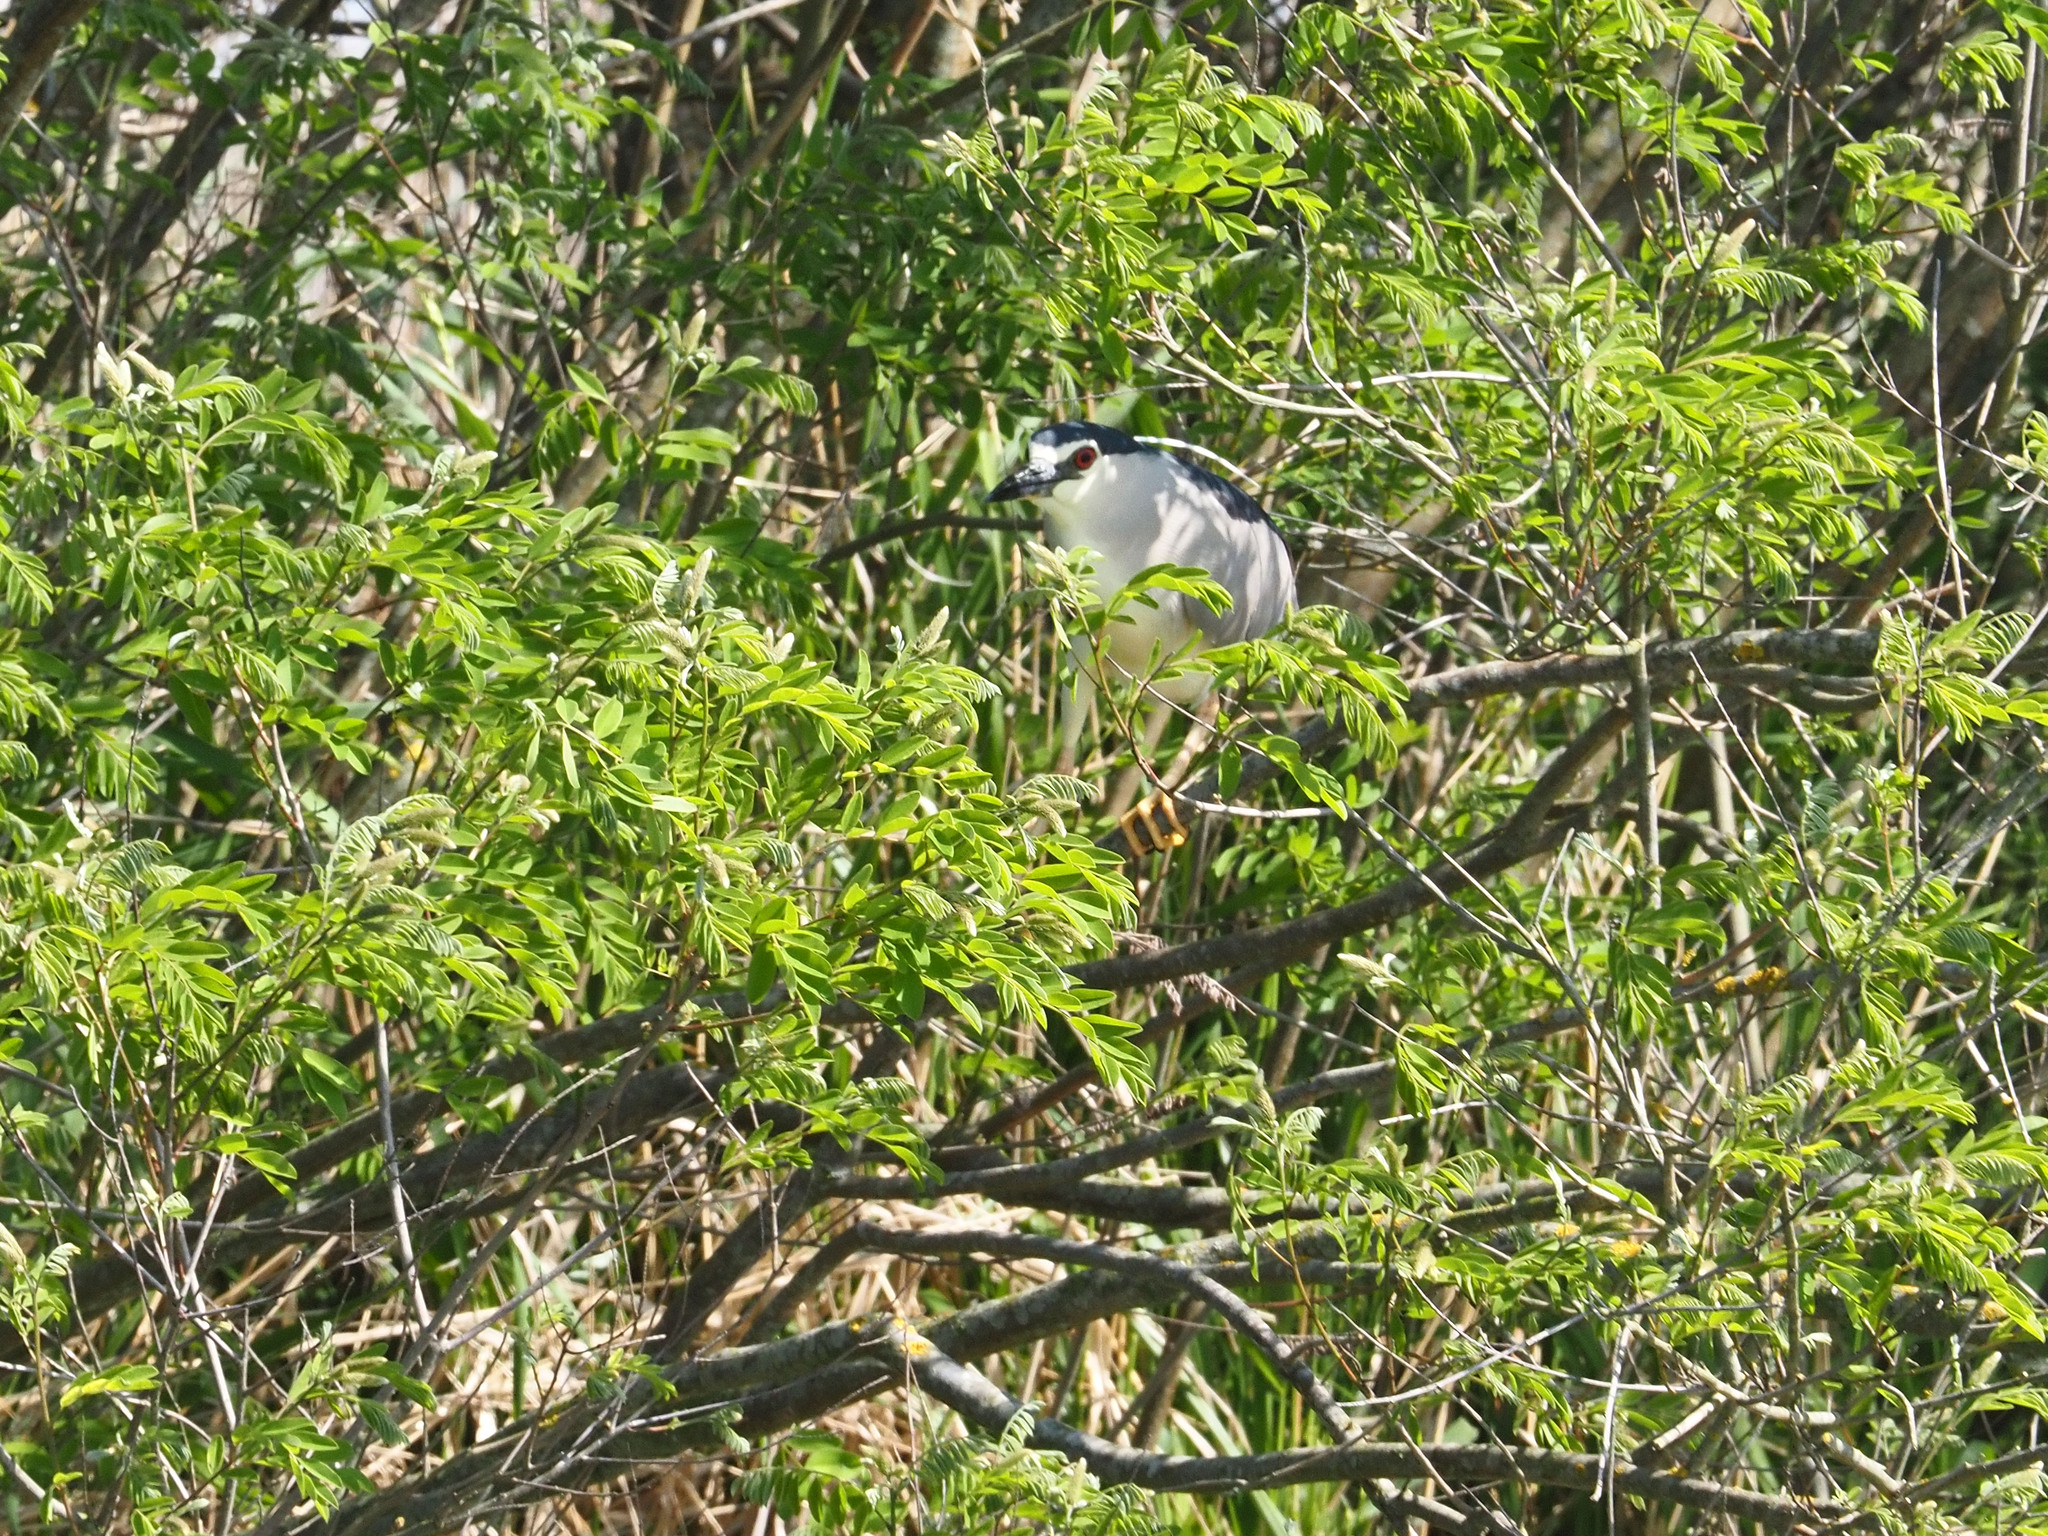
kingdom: Animalia
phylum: Chordata
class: Aves
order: Pelecaniformes
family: Ardeidae
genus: Nycticorax
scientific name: Nycticorax nycticorax
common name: Black-crowned night heron
